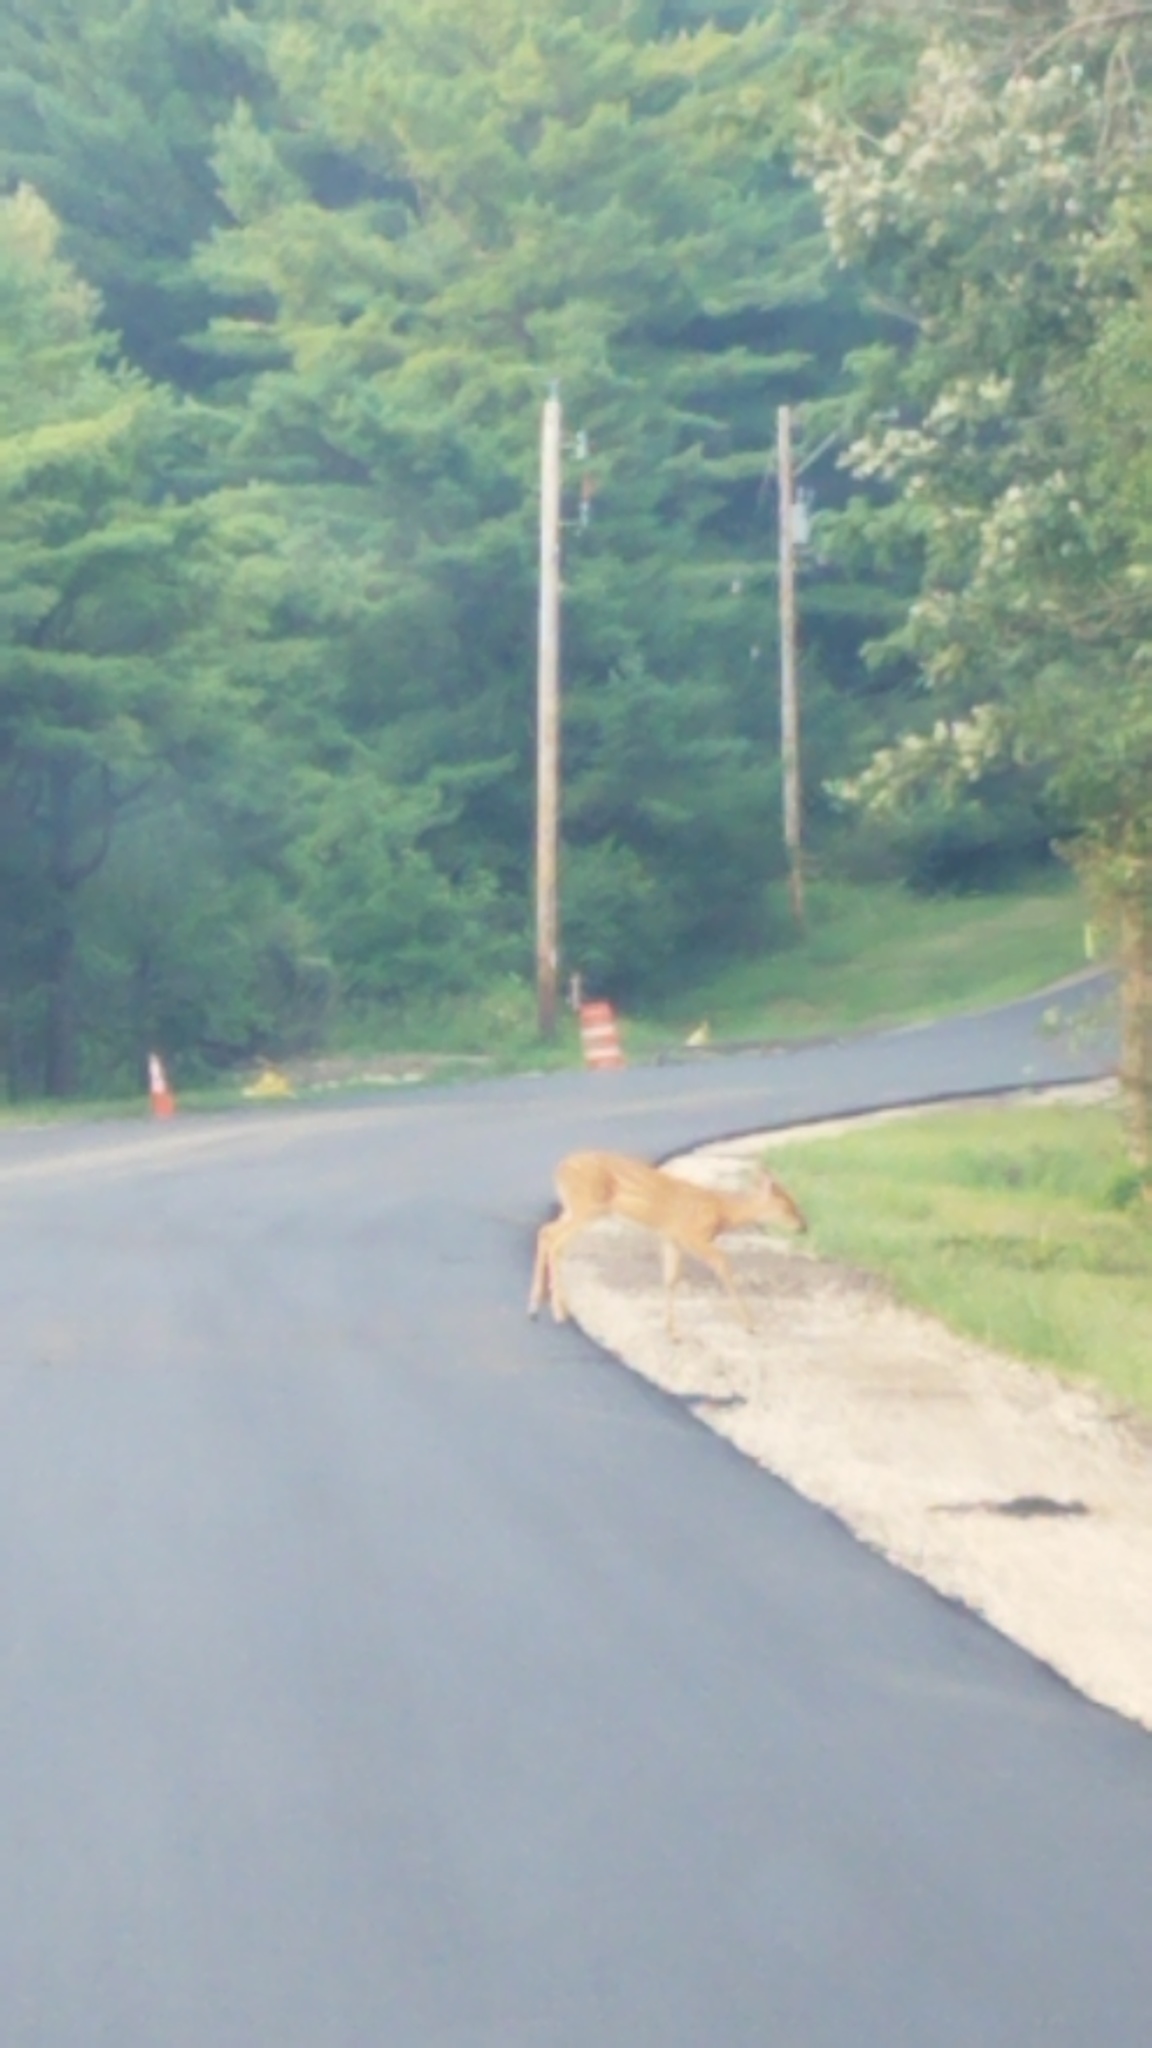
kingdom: Animalia
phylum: Chordata
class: Mammalia
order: Artiodactyla
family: Cervidae
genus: Odocoileus
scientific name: Odocoileus virginianus
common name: White-tailed deer
